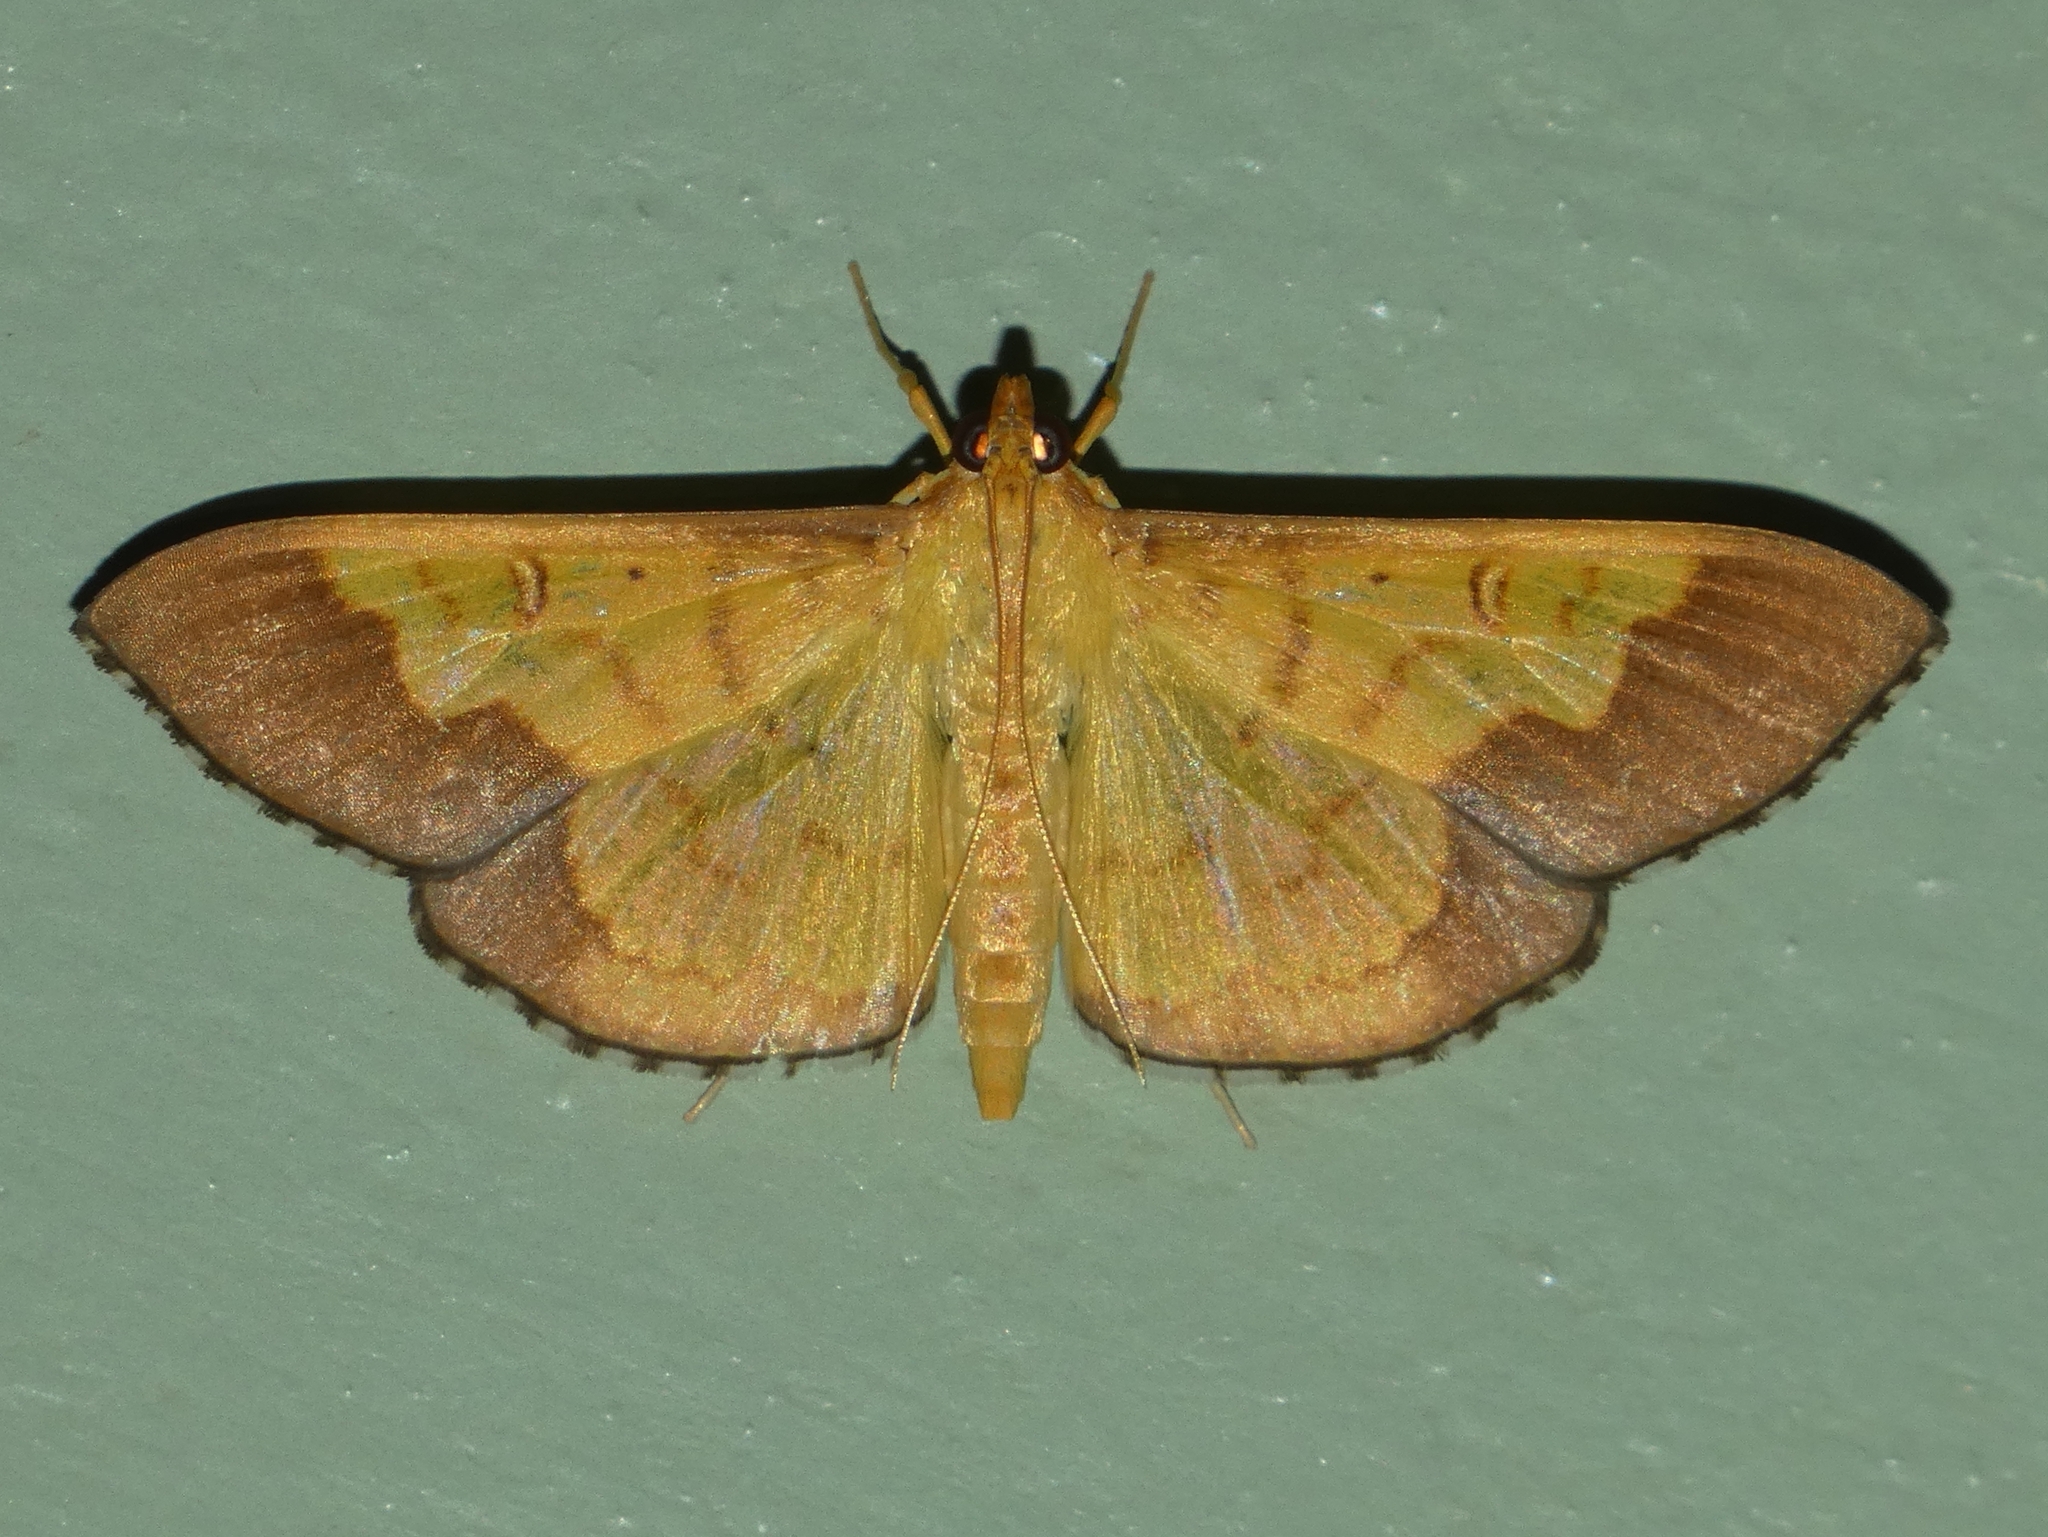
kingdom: Animalia
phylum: Arthropoda
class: Insecta
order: Lepidoptera
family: Crambidae
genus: Meroctena
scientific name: Meroctena staintonii
